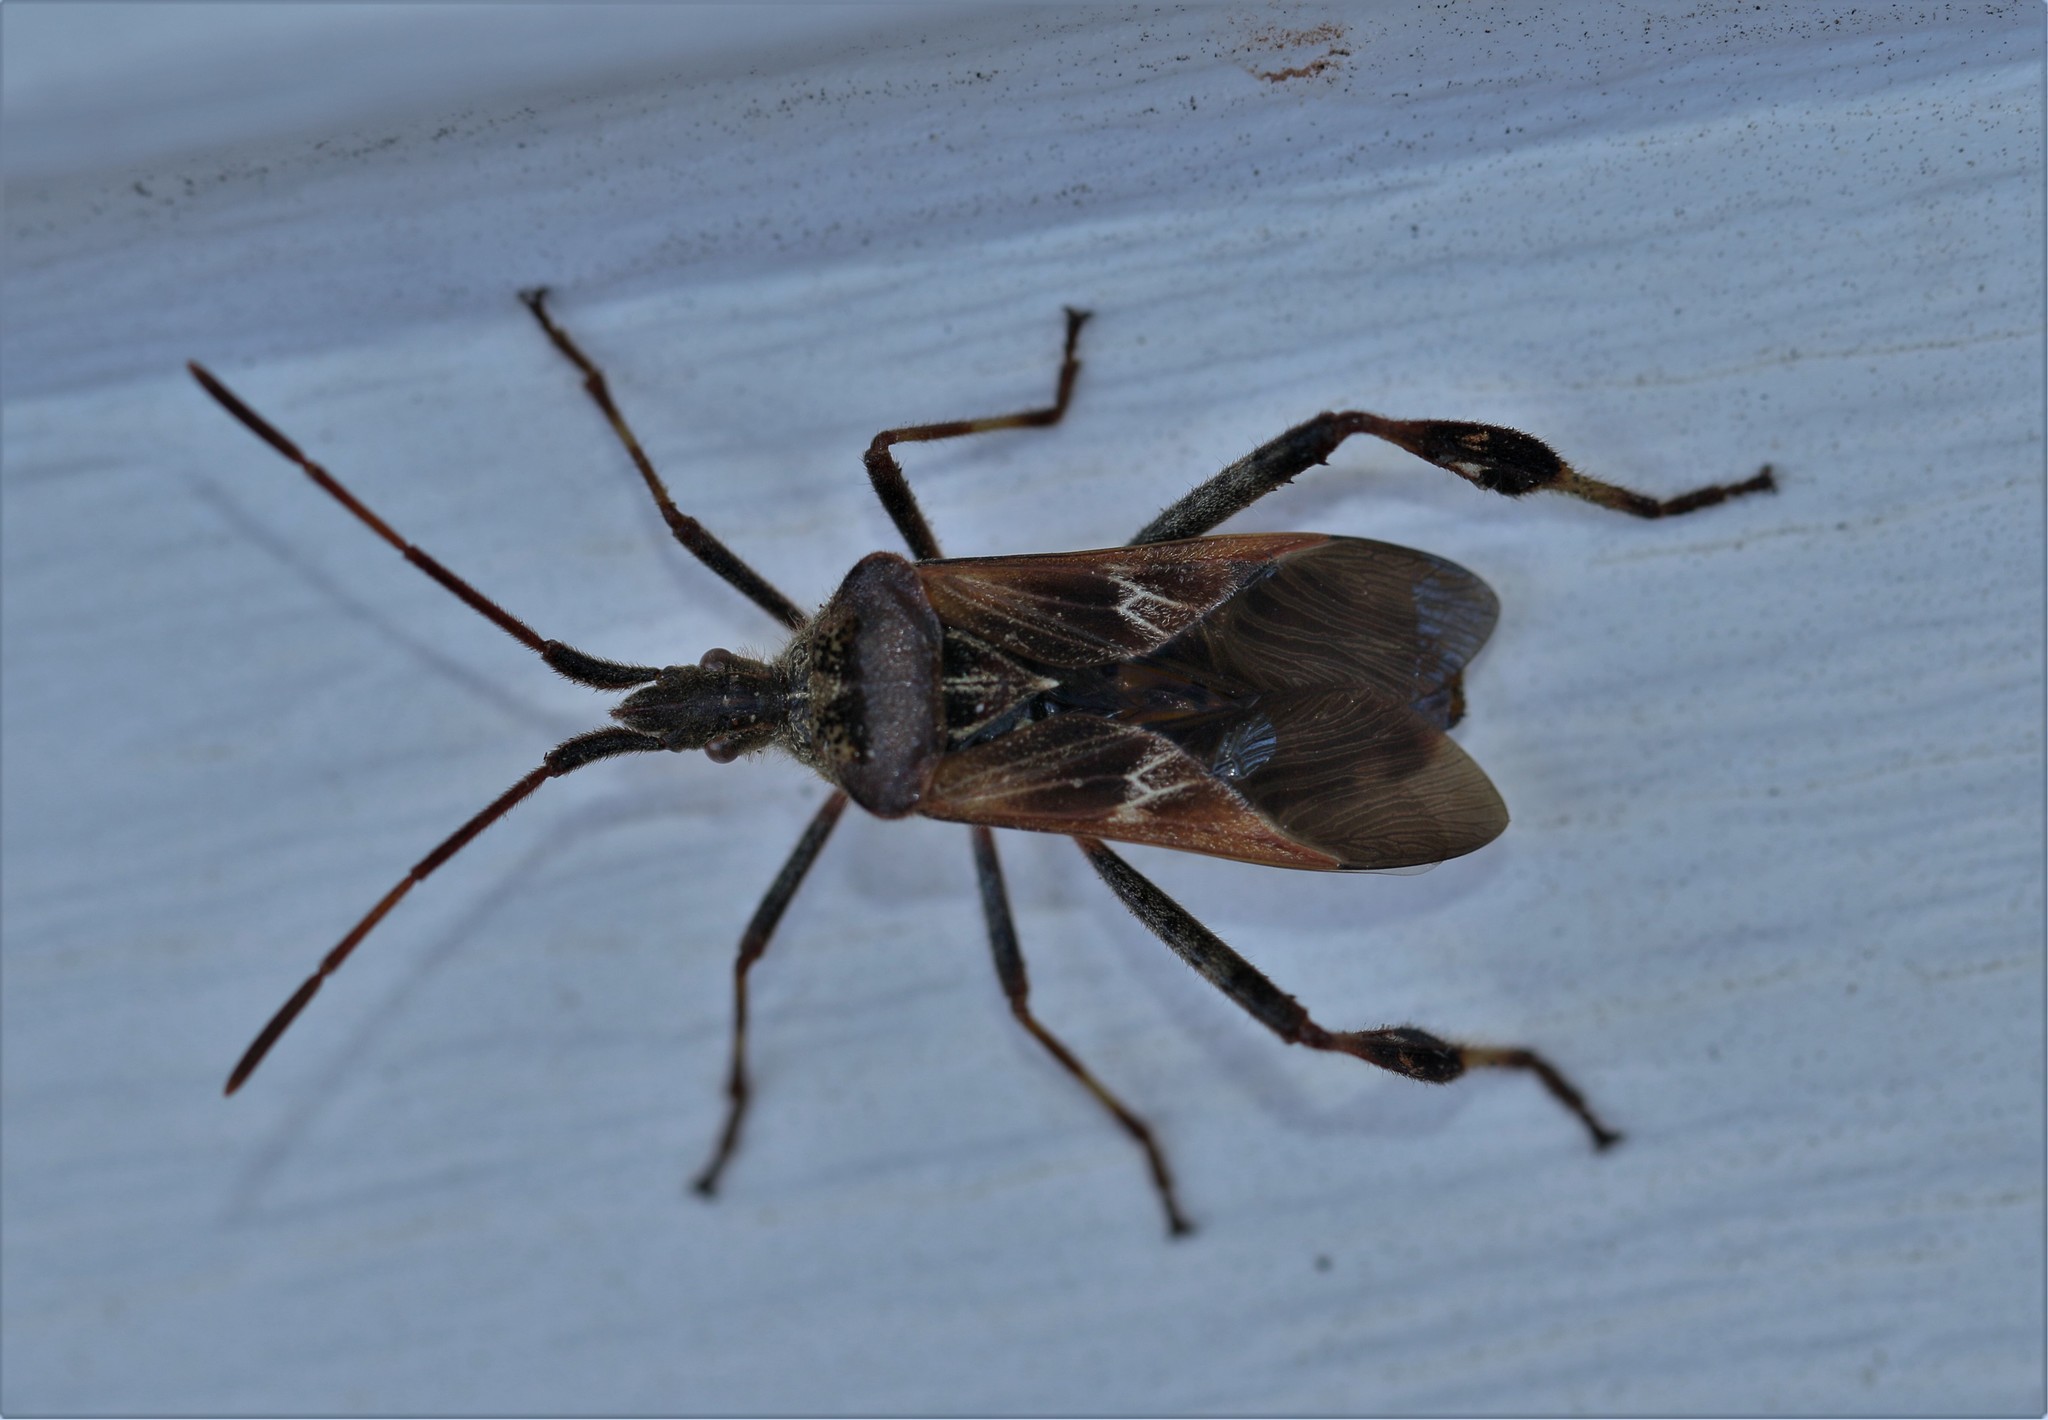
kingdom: Animalia
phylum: Arthropoda
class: Insecta
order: Hemiptera
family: Coreidae
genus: Leptoglossus
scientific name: Leptoglossus occidentalis
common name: Western conifer-seed bug
